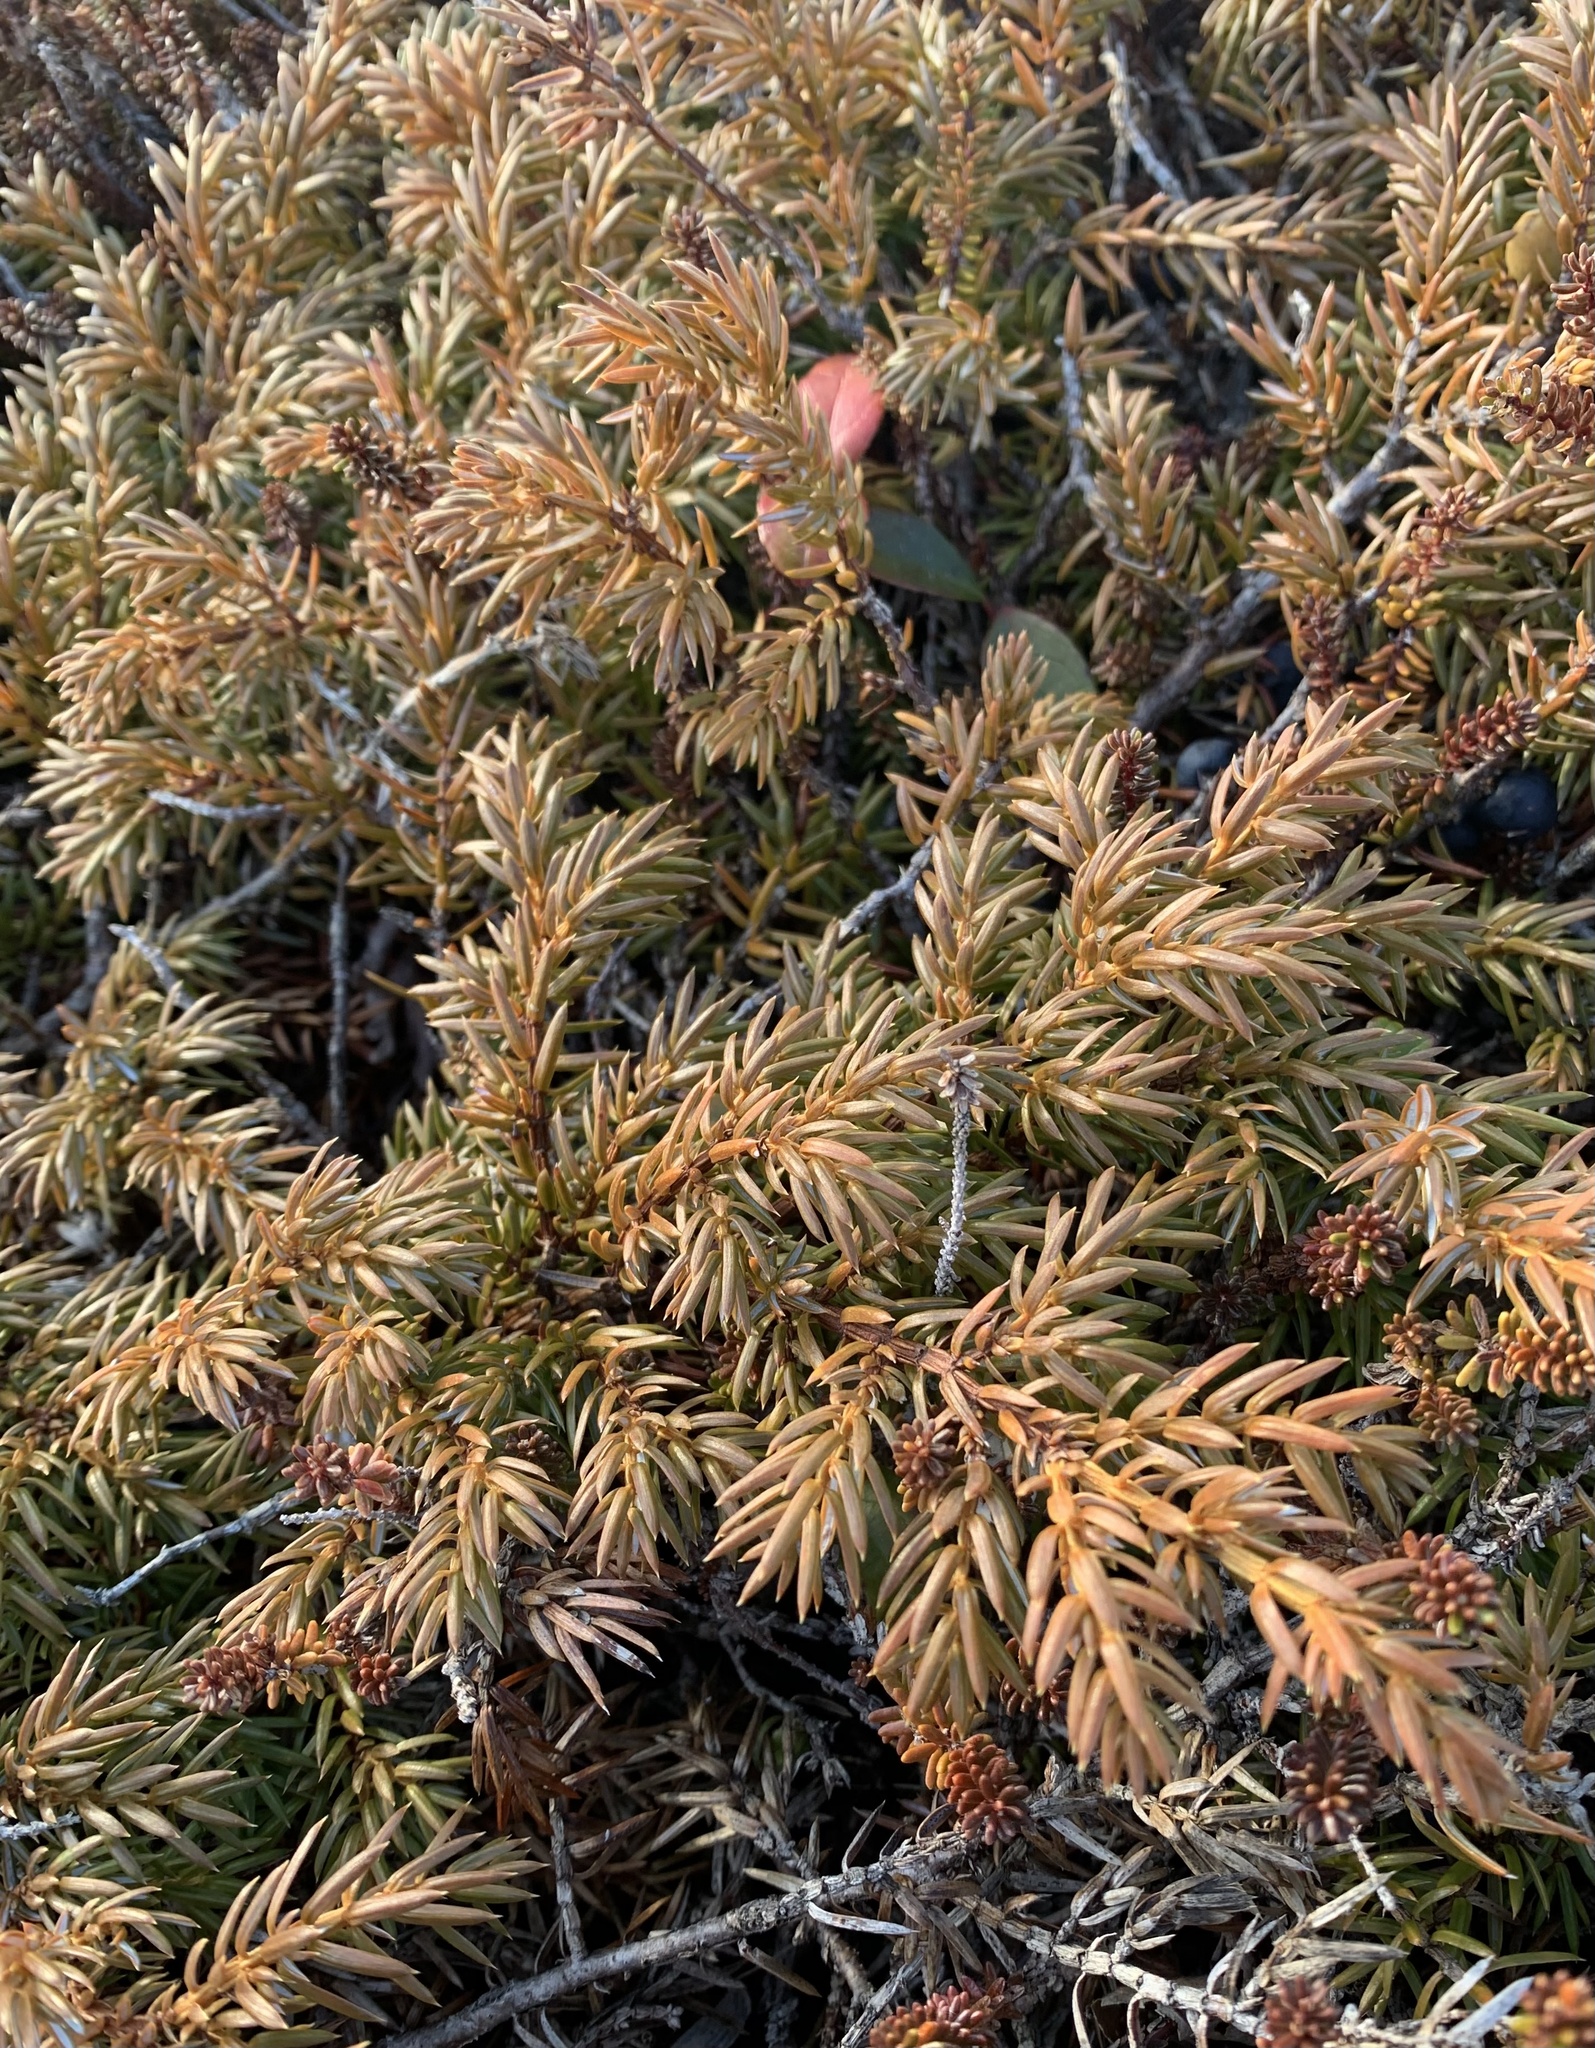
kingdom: Plantae
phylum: Tracheophyta
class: Pinopsida
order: Pinales
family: Cupressaceae
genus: Juniperus
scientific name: Juniperus communis
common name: Common juniper
